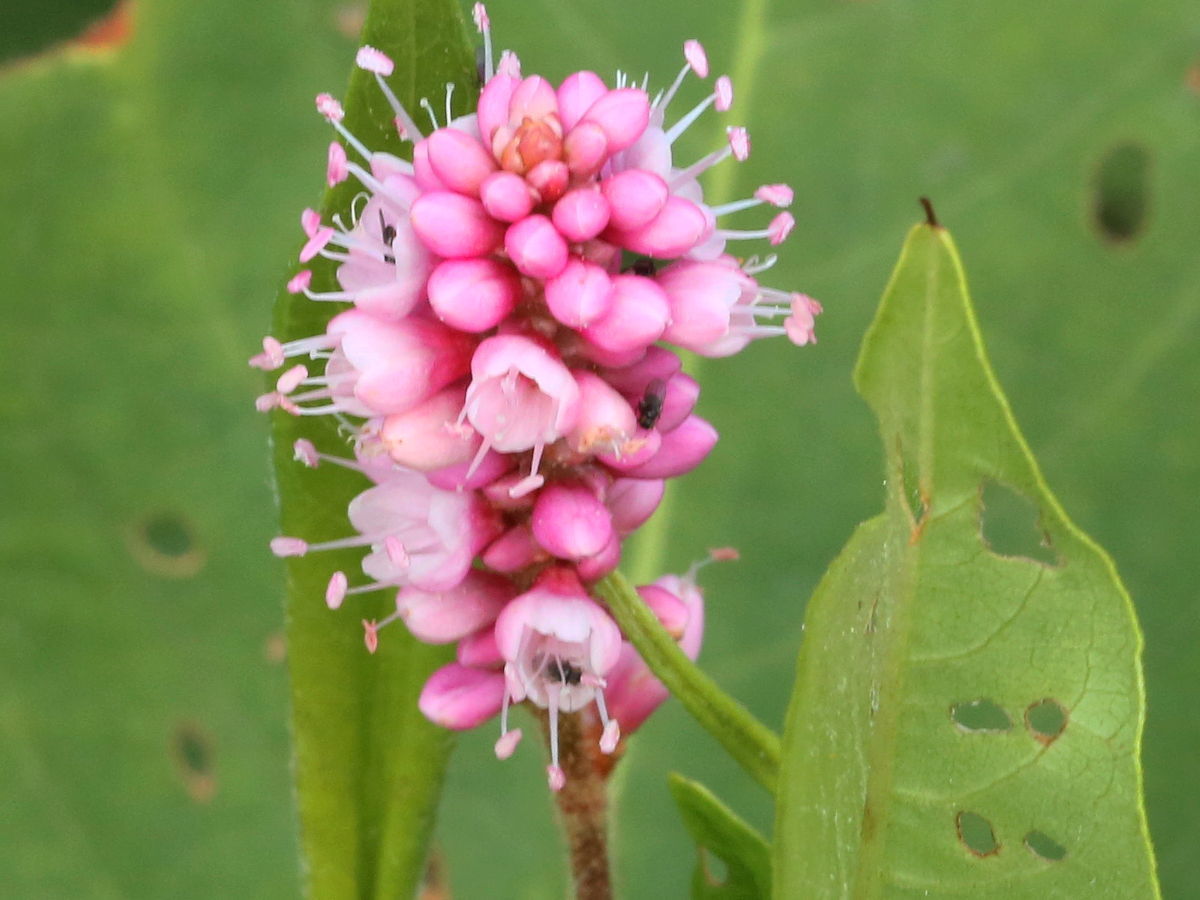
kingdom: Plantae
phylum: Tracheophyta
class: Magnoliopsida
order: Caryophyllales
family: Polygonaceae
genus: Persicaria
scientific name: Persicaria amphibia
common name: Amphibious bistort
